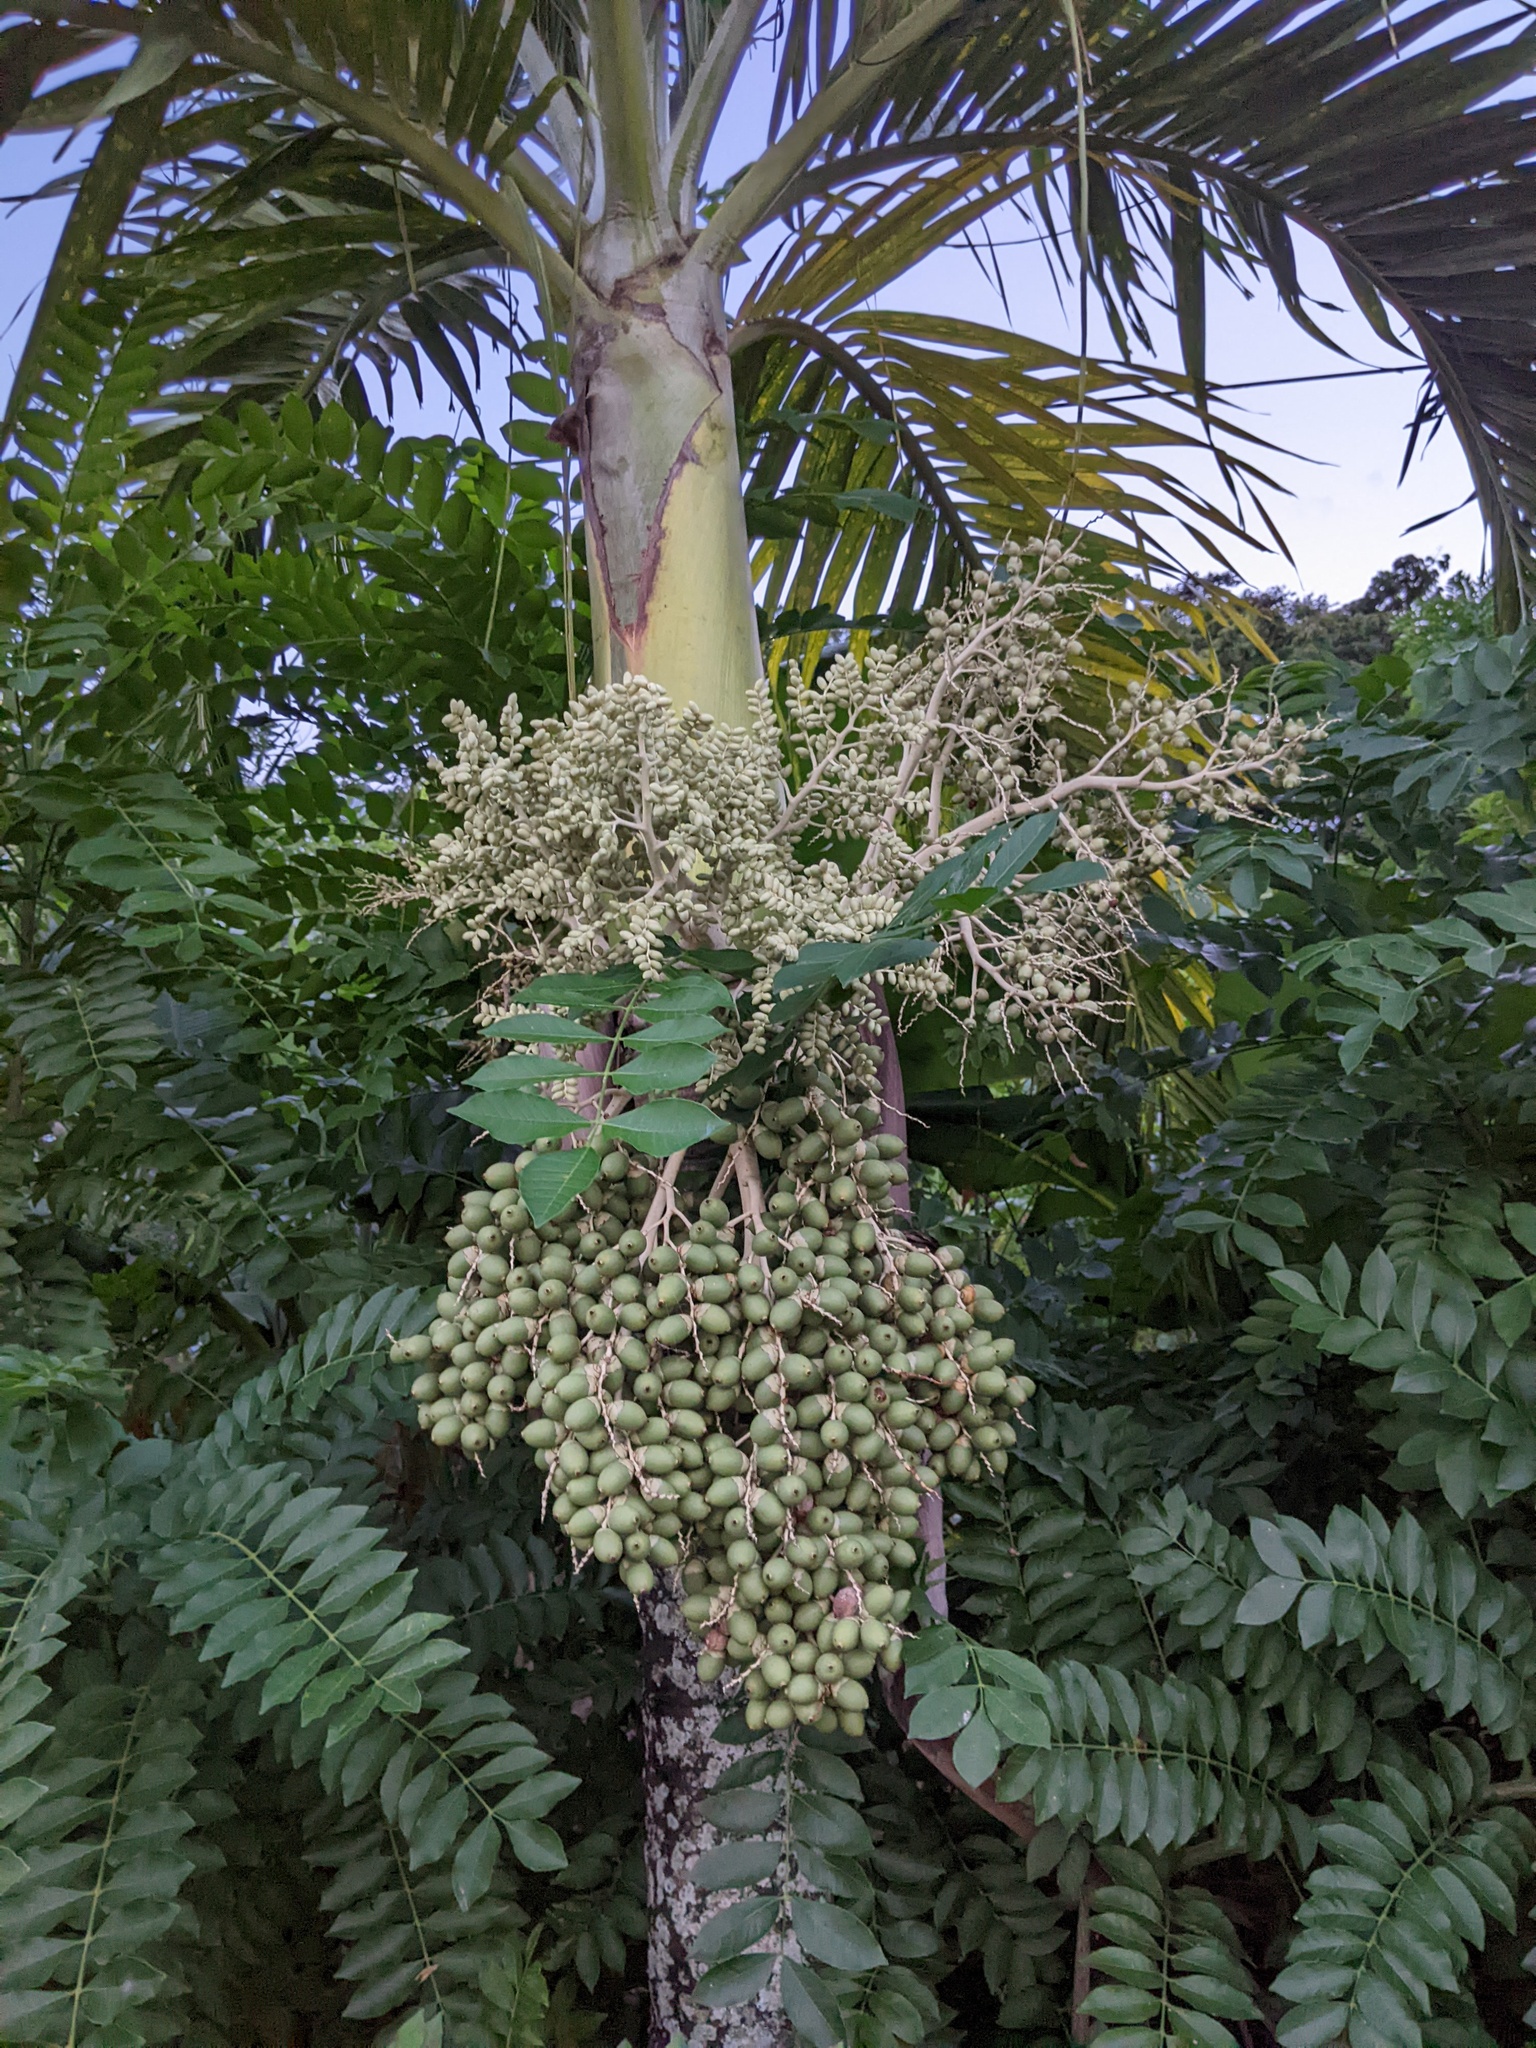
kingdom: Plantae
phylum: Tracheophyta
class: Liliopsida
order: Arecales
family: Arecaceae
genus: Adonidia
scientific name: Adonidia merrillii
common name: Manila palm
